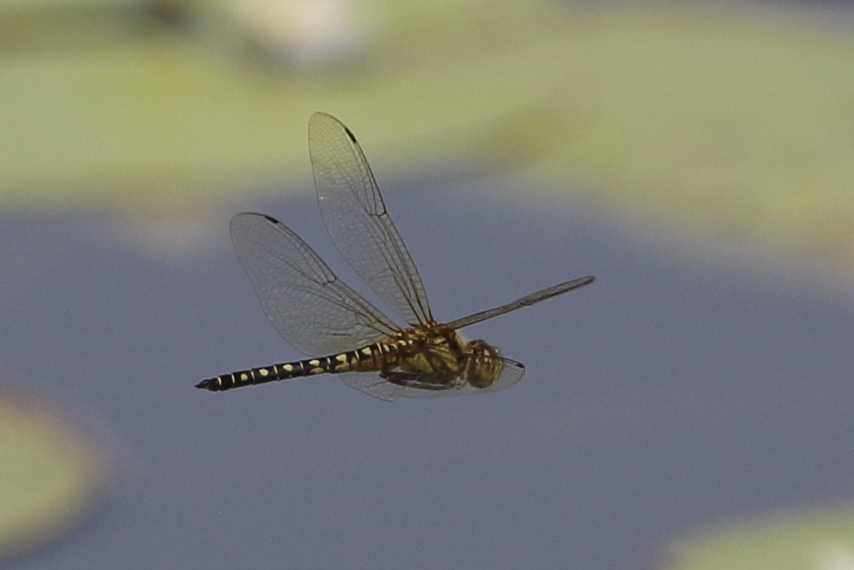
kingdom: Animalia
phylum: Arthropoda
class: Insecta
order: Odonata
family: Libellulidae
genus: Hydrobasileus
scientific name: Hydrobasileus brevistylus
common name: Water prince
